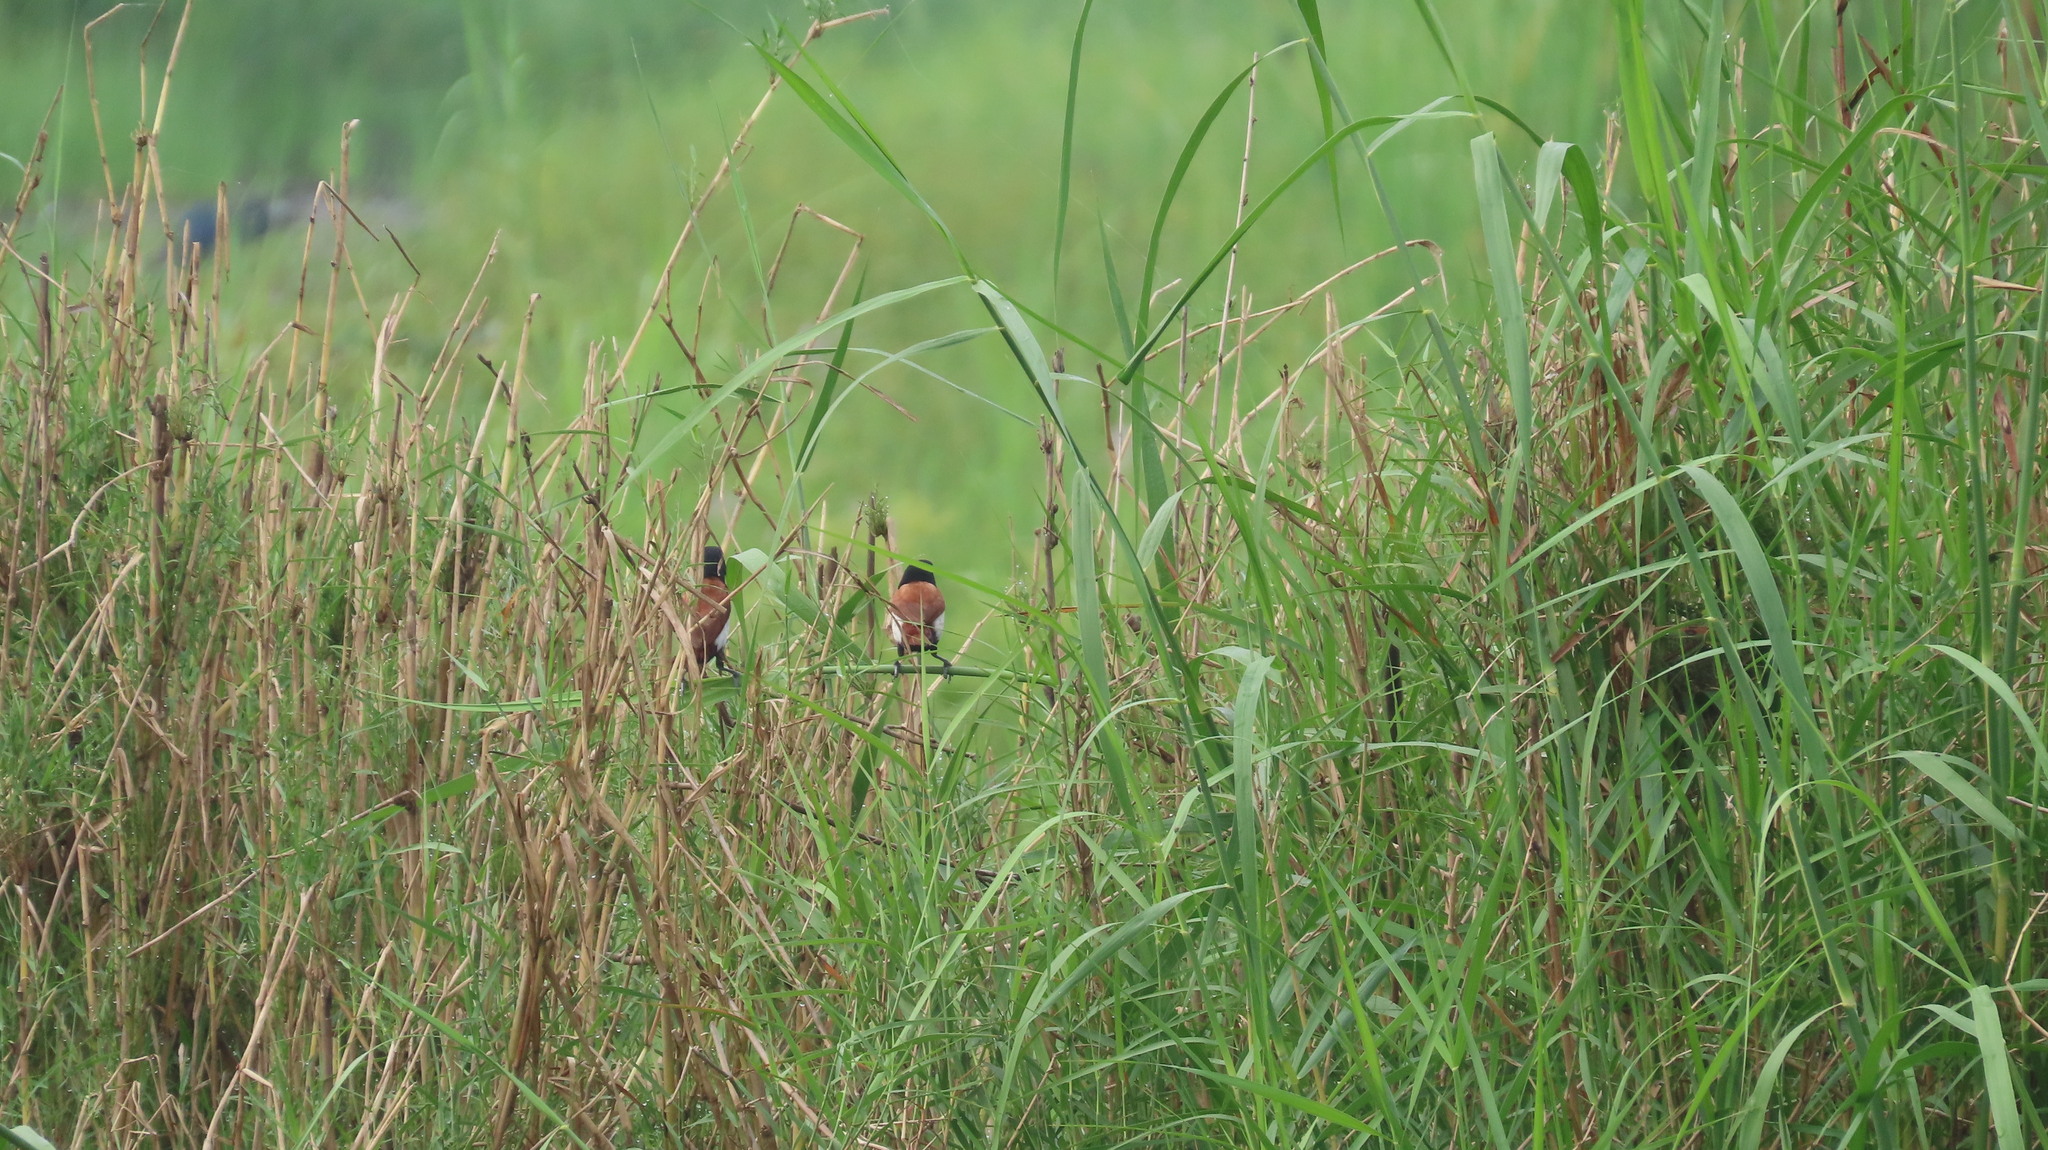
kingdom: Animalia
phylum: Chordata
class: Aves
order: Passeriformes
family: Estrildidae
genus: Lonchura
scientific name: Lonchura malacca
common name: Tricolored munia
